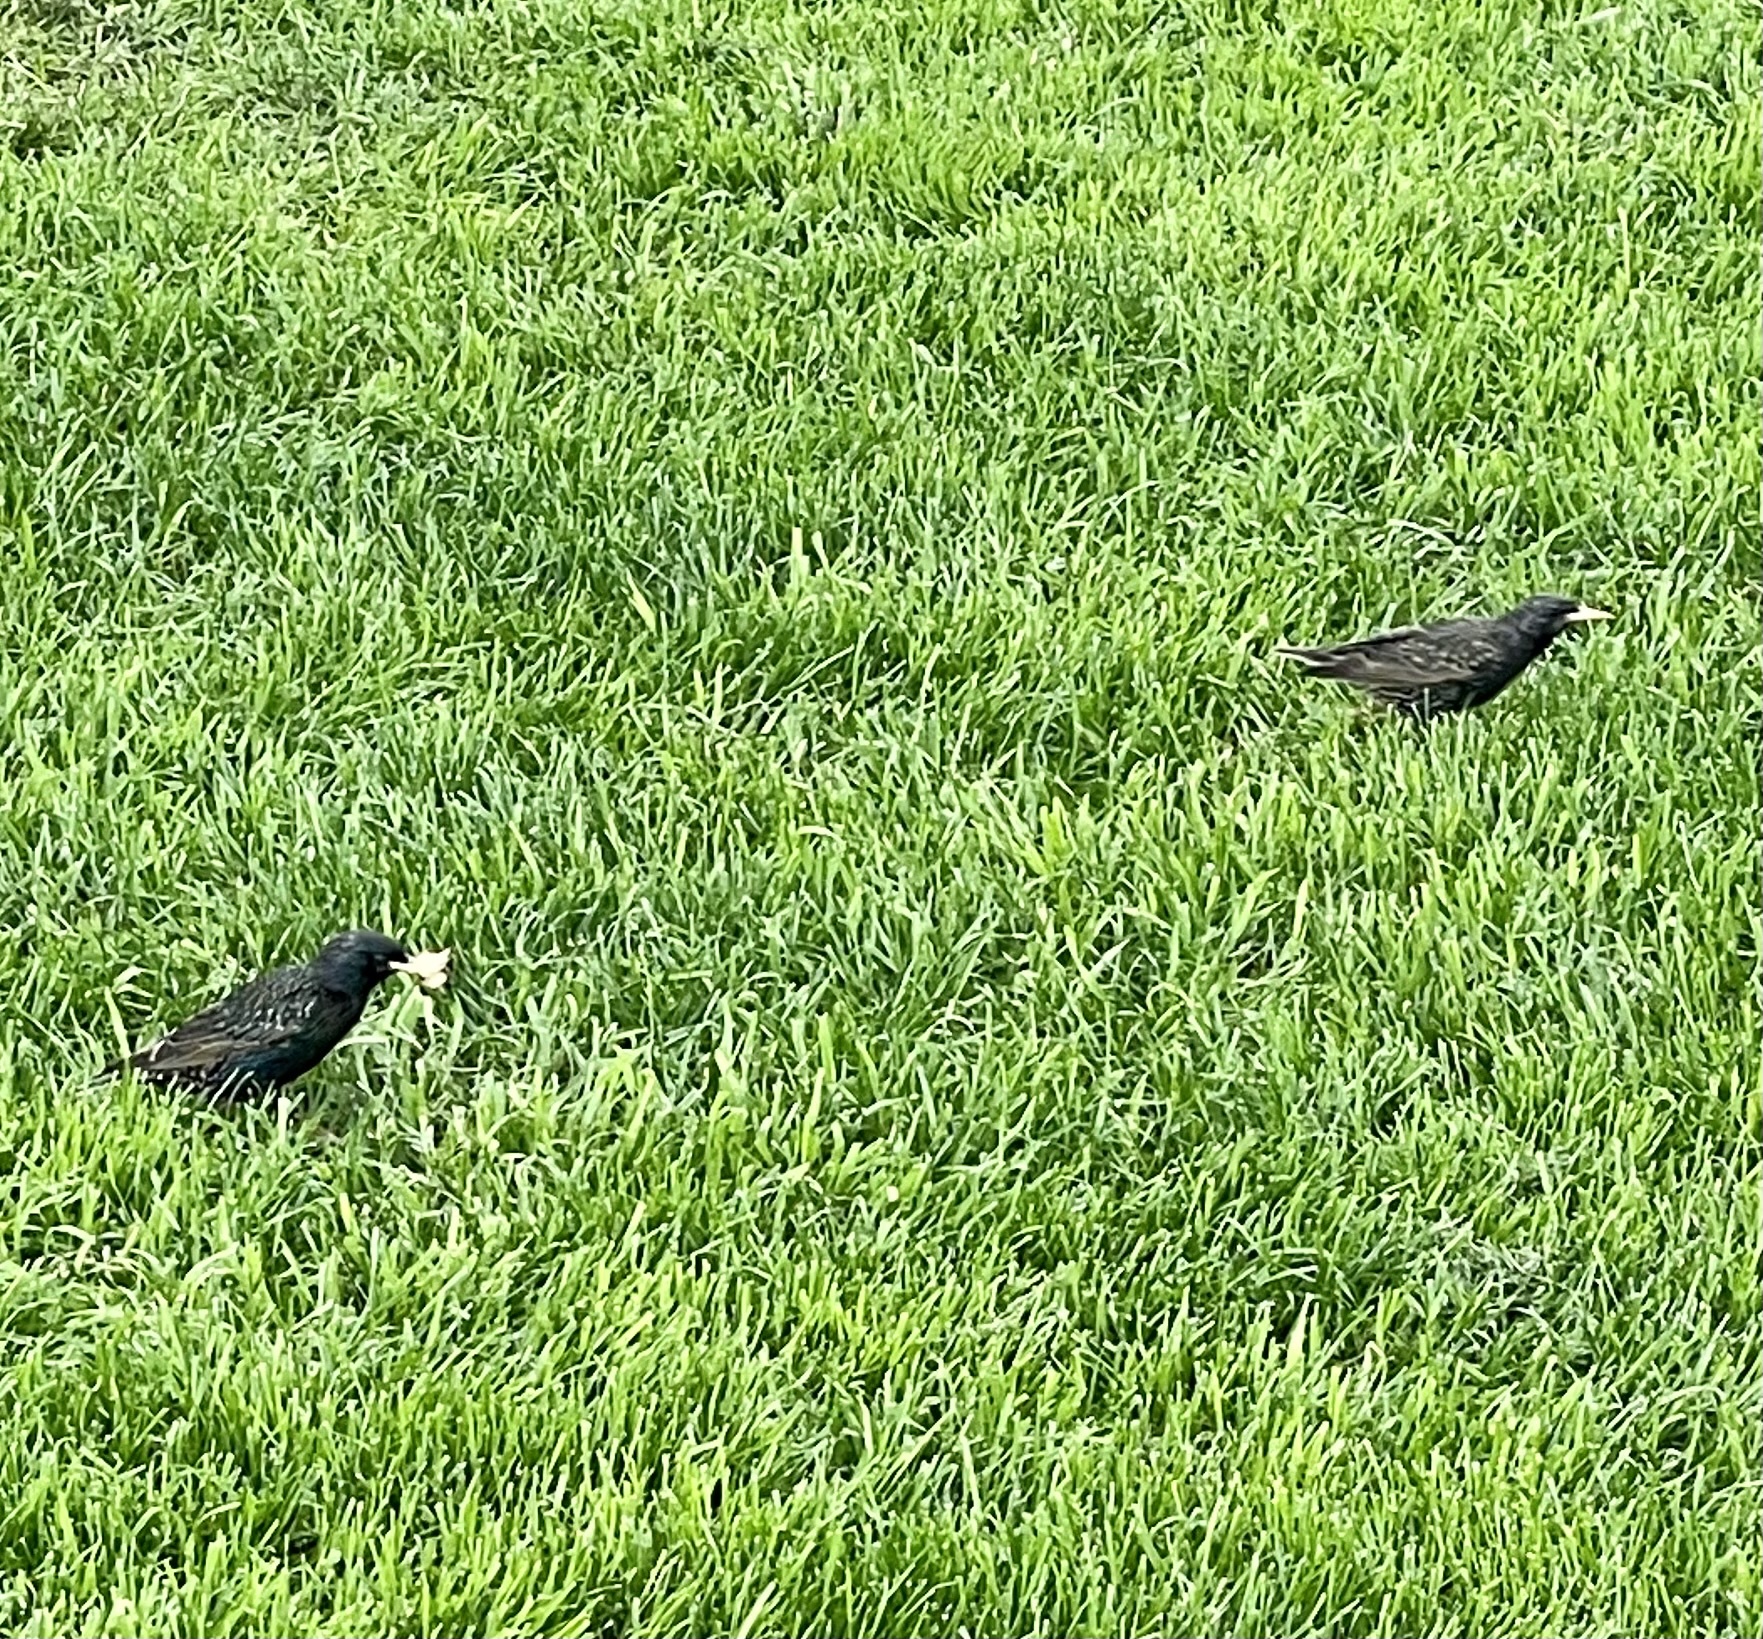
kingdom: Animalia
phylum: Chordata
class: Aves
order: Passeriformes
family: Sturnidae
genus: Sturnus
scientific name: Sturnus vulgaris
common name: Common starling
